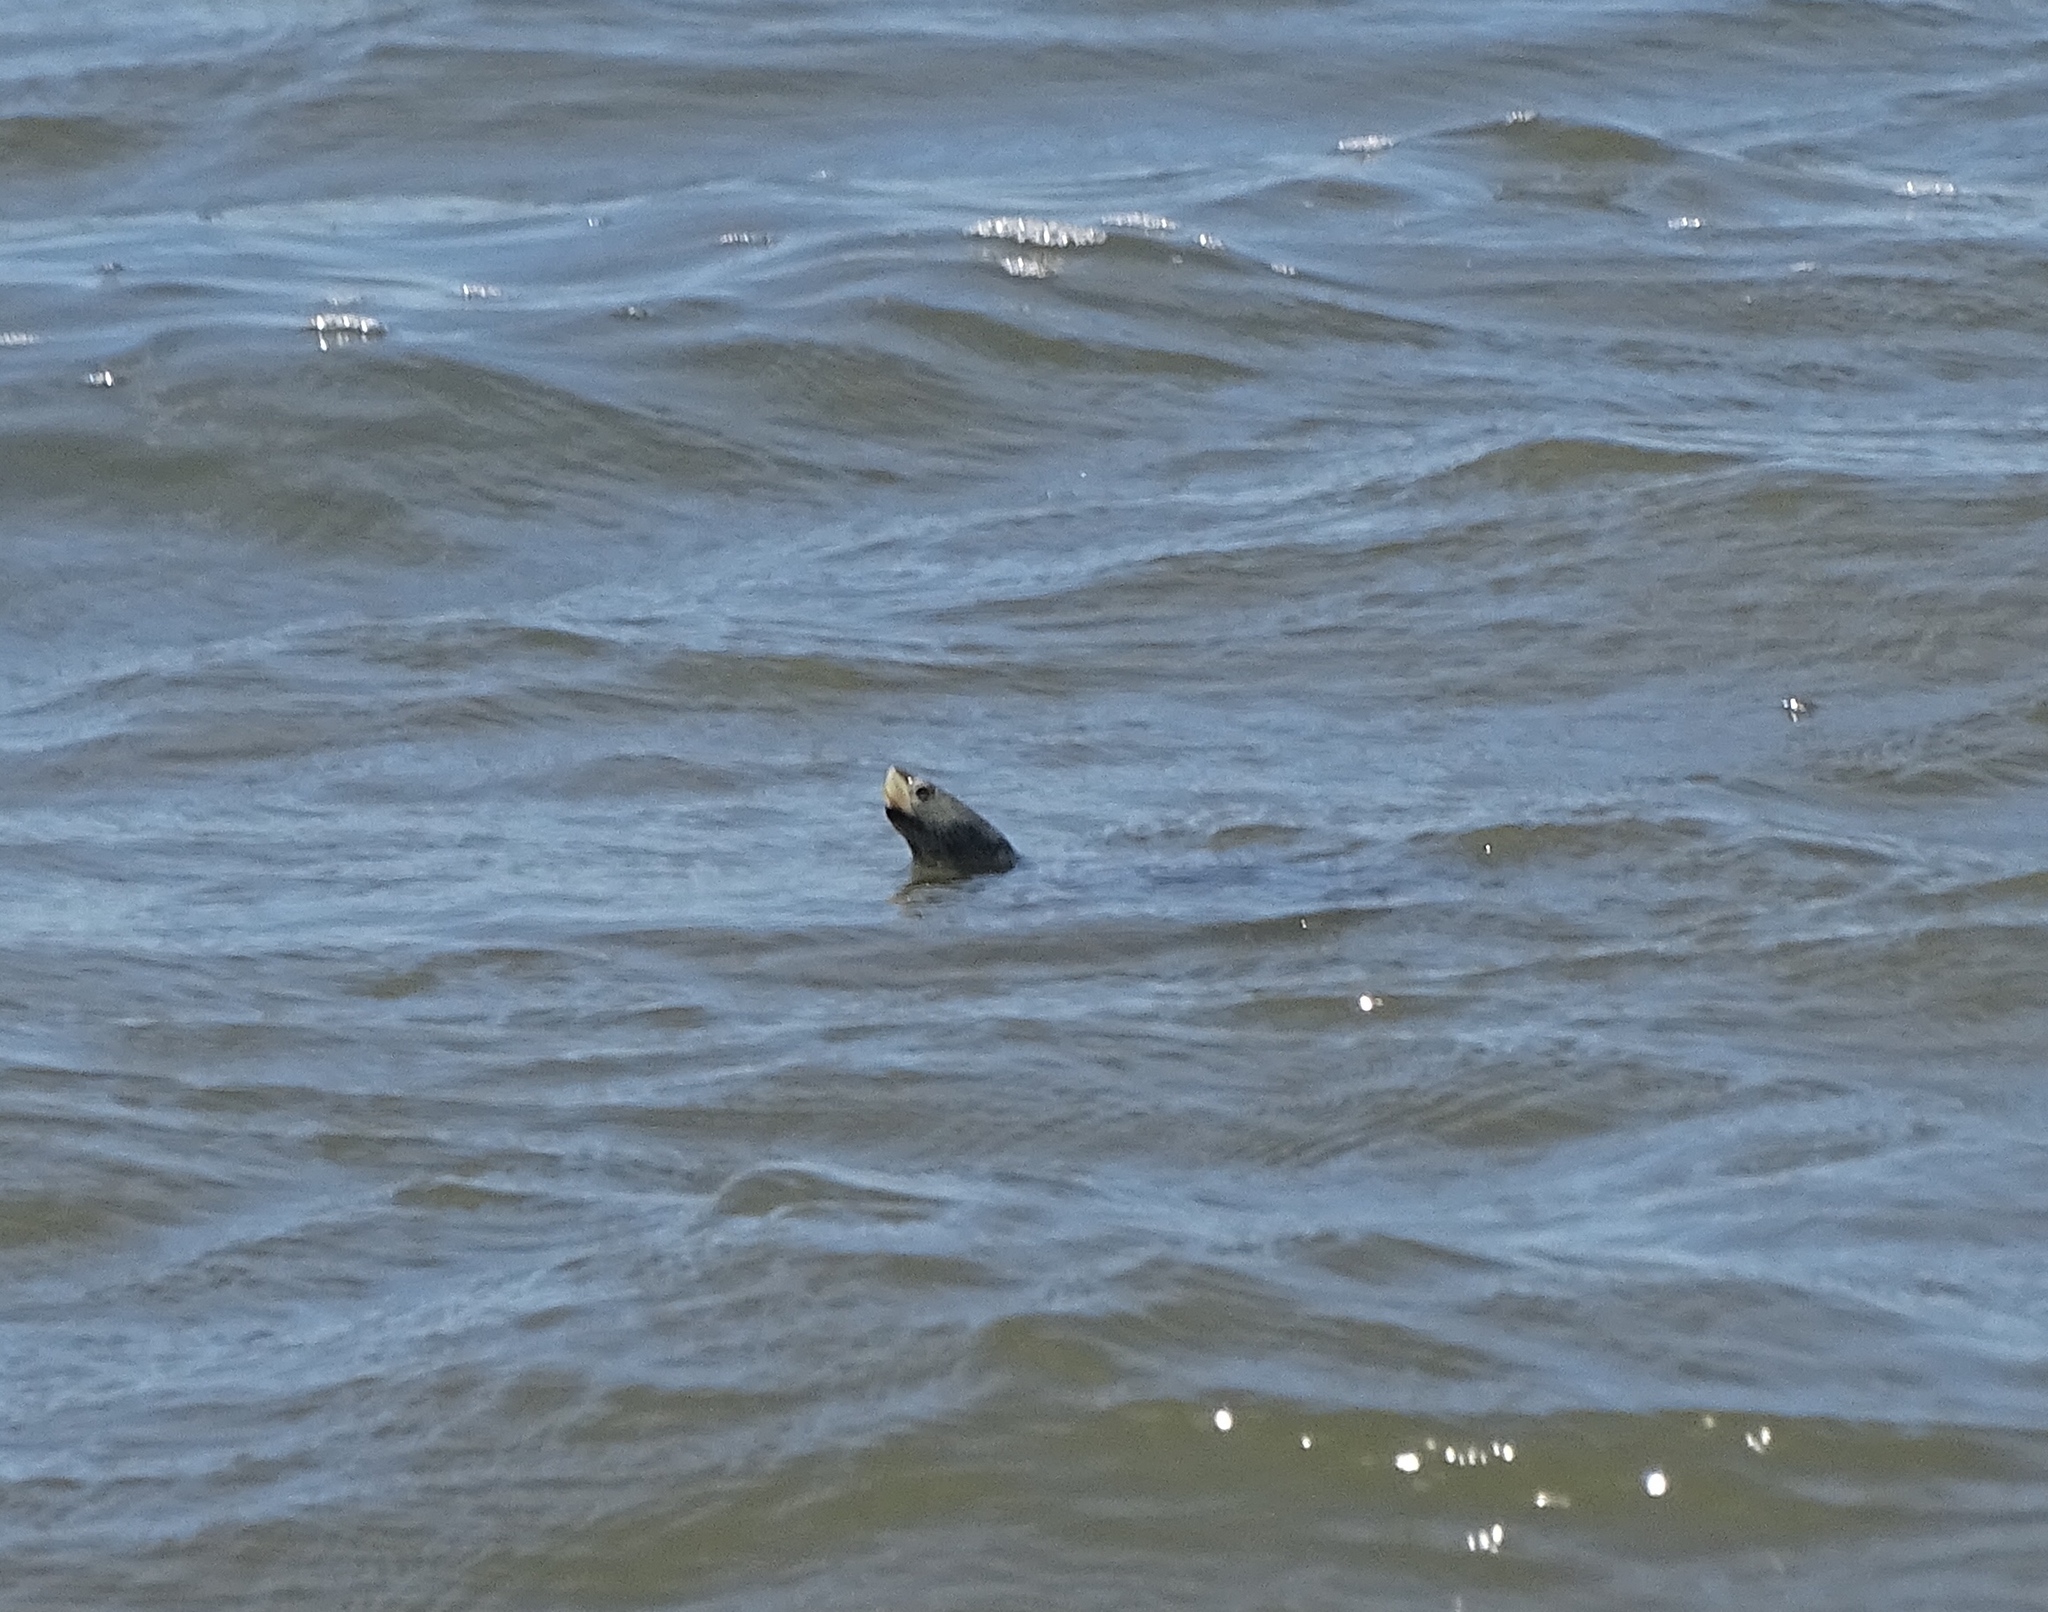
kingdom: Animalia
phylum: Chordata
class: Testudines
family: Emydidae
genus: Malaclemys
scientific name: Malaclemys terrapin
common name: Diamondback terrapin
